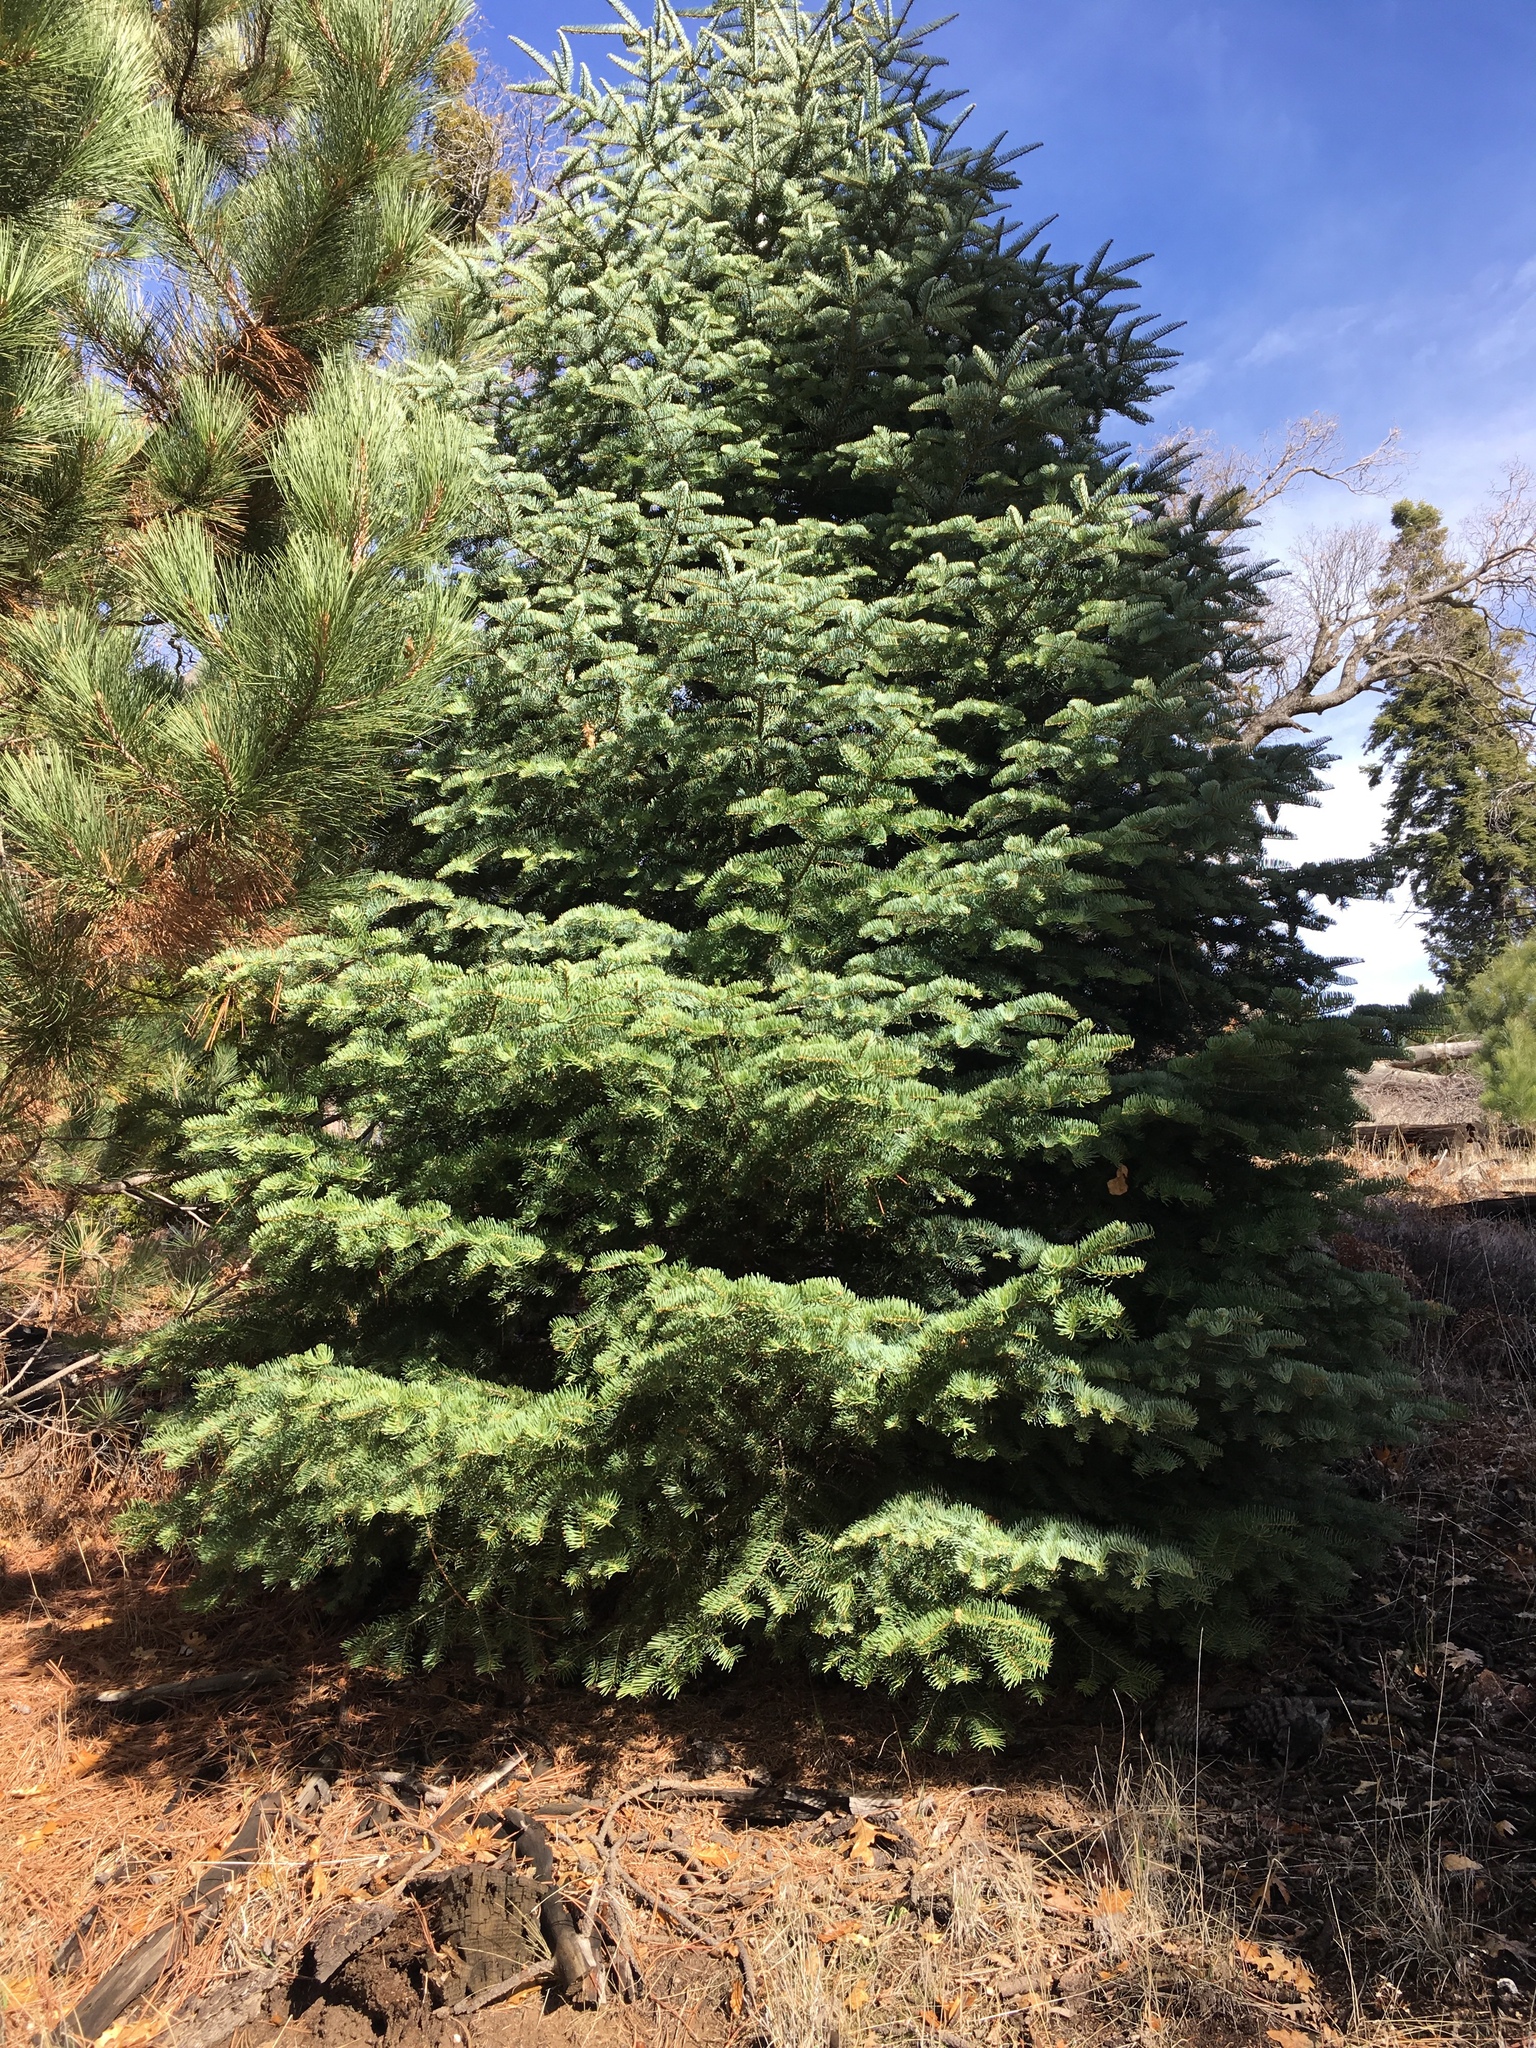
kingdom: Plantae
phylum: Tracheophyta
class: Pinopsida
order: Pinales
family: Pinaceae
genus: Abies
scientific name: Abies concolor
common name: Colorado fir
